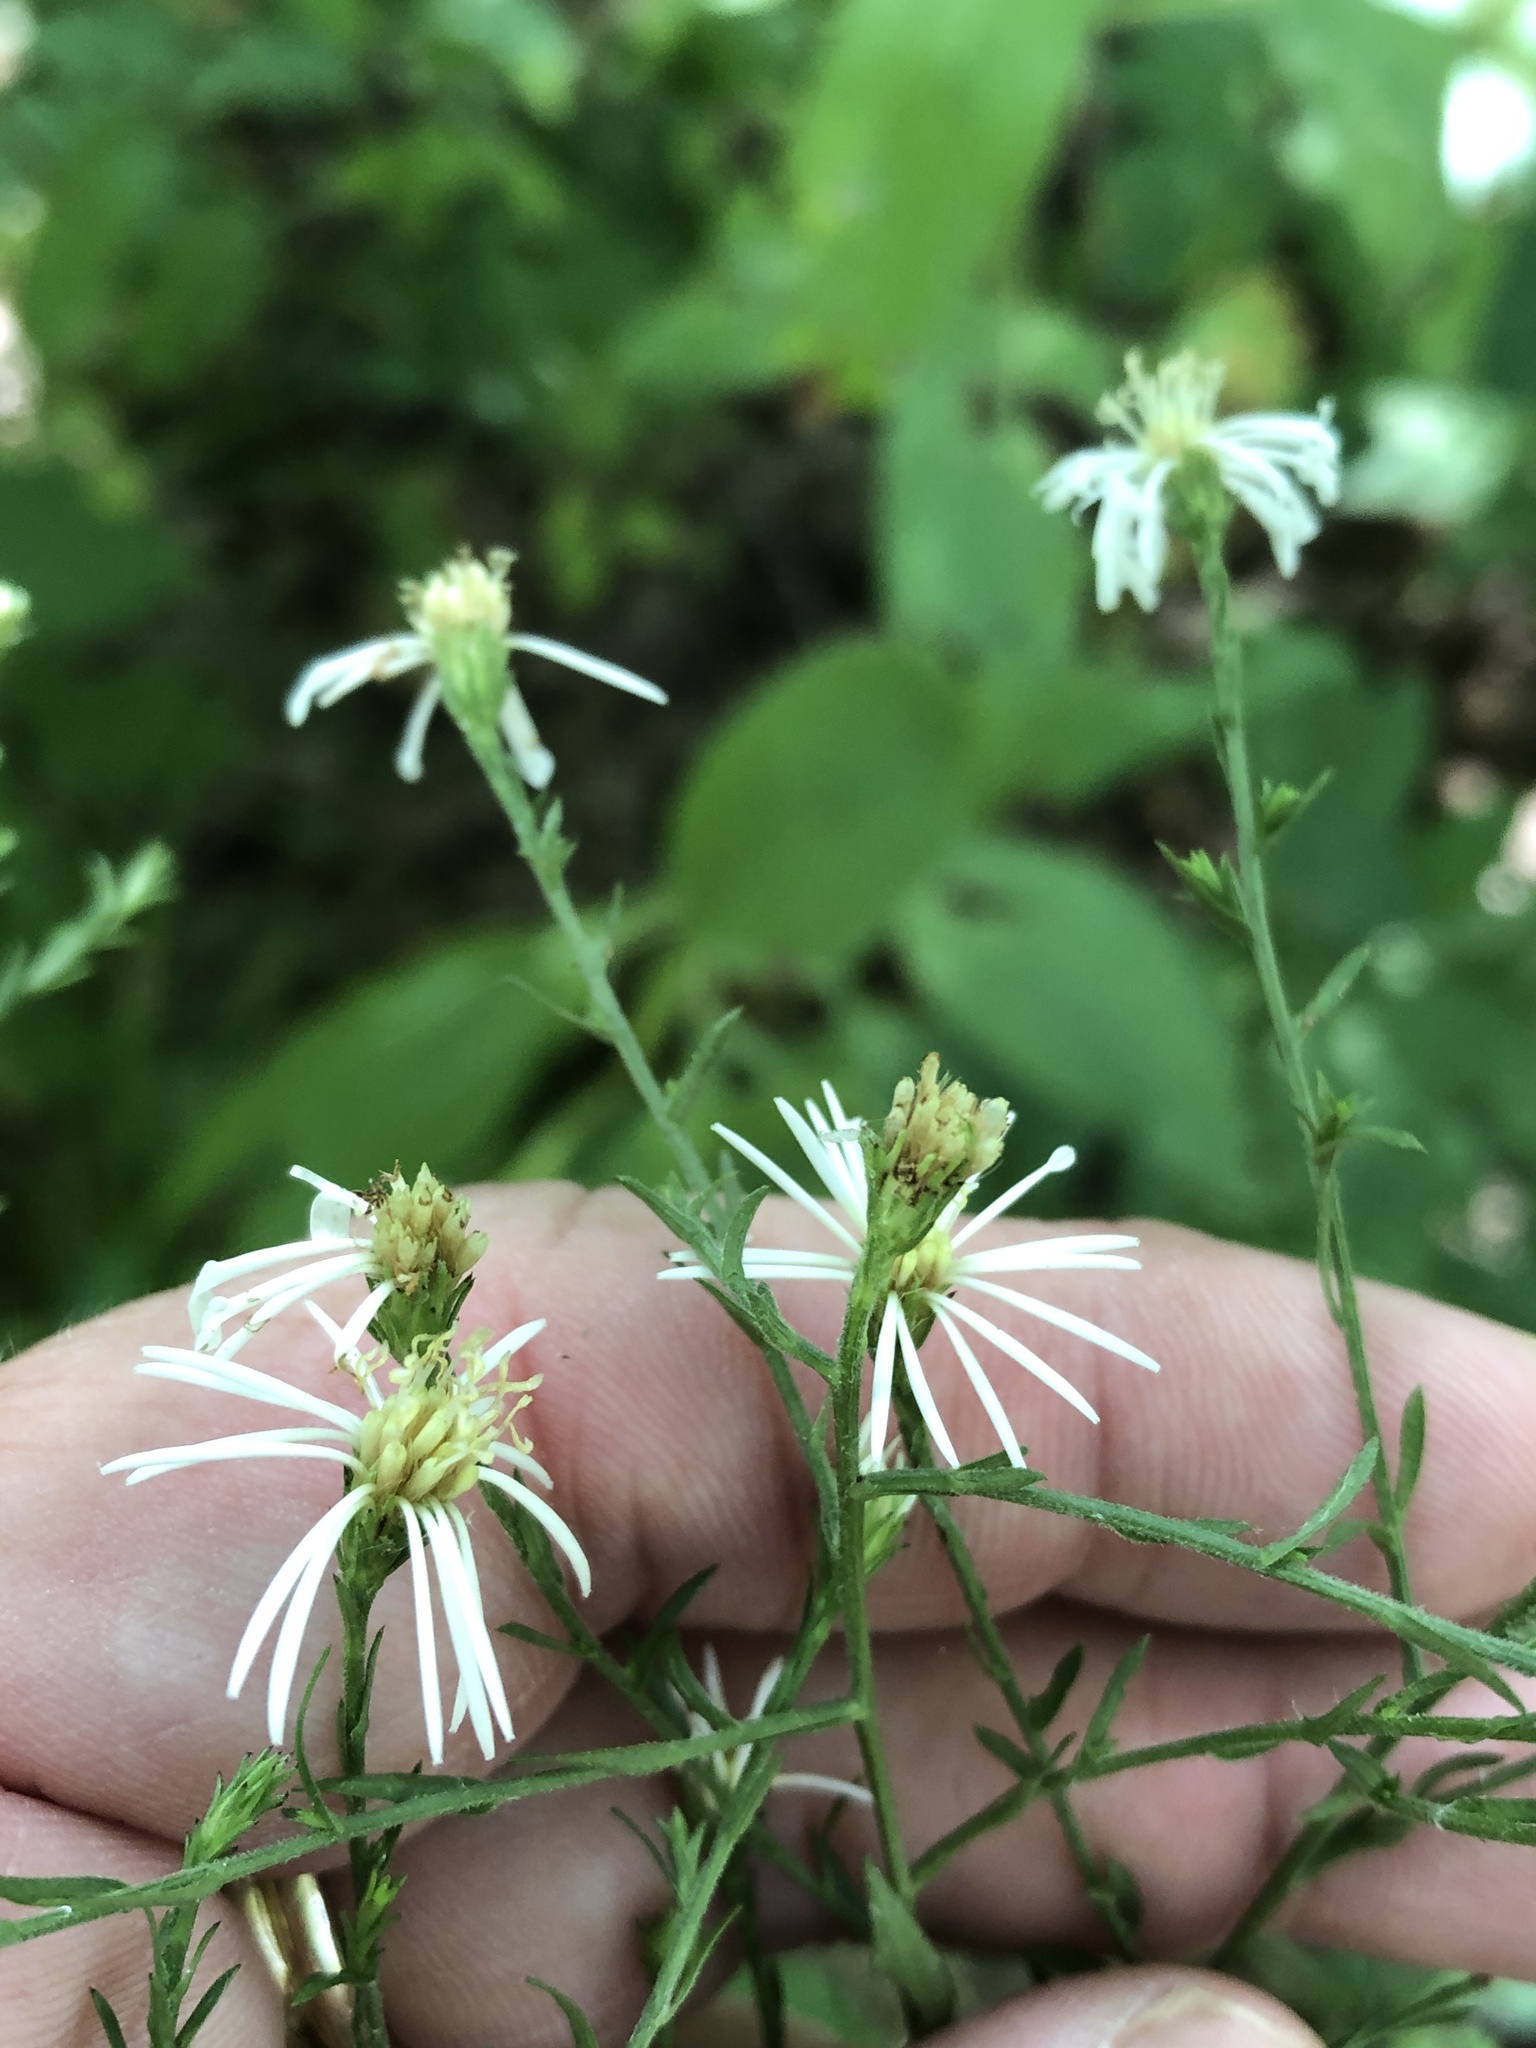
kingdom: Plantae
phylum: Tracheophyta
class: Magnoliopsida
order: Asterales
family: Asteraceae
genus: Symphyotrichum
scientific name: Symphyotrichum drummondii
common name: Drummond's aster
